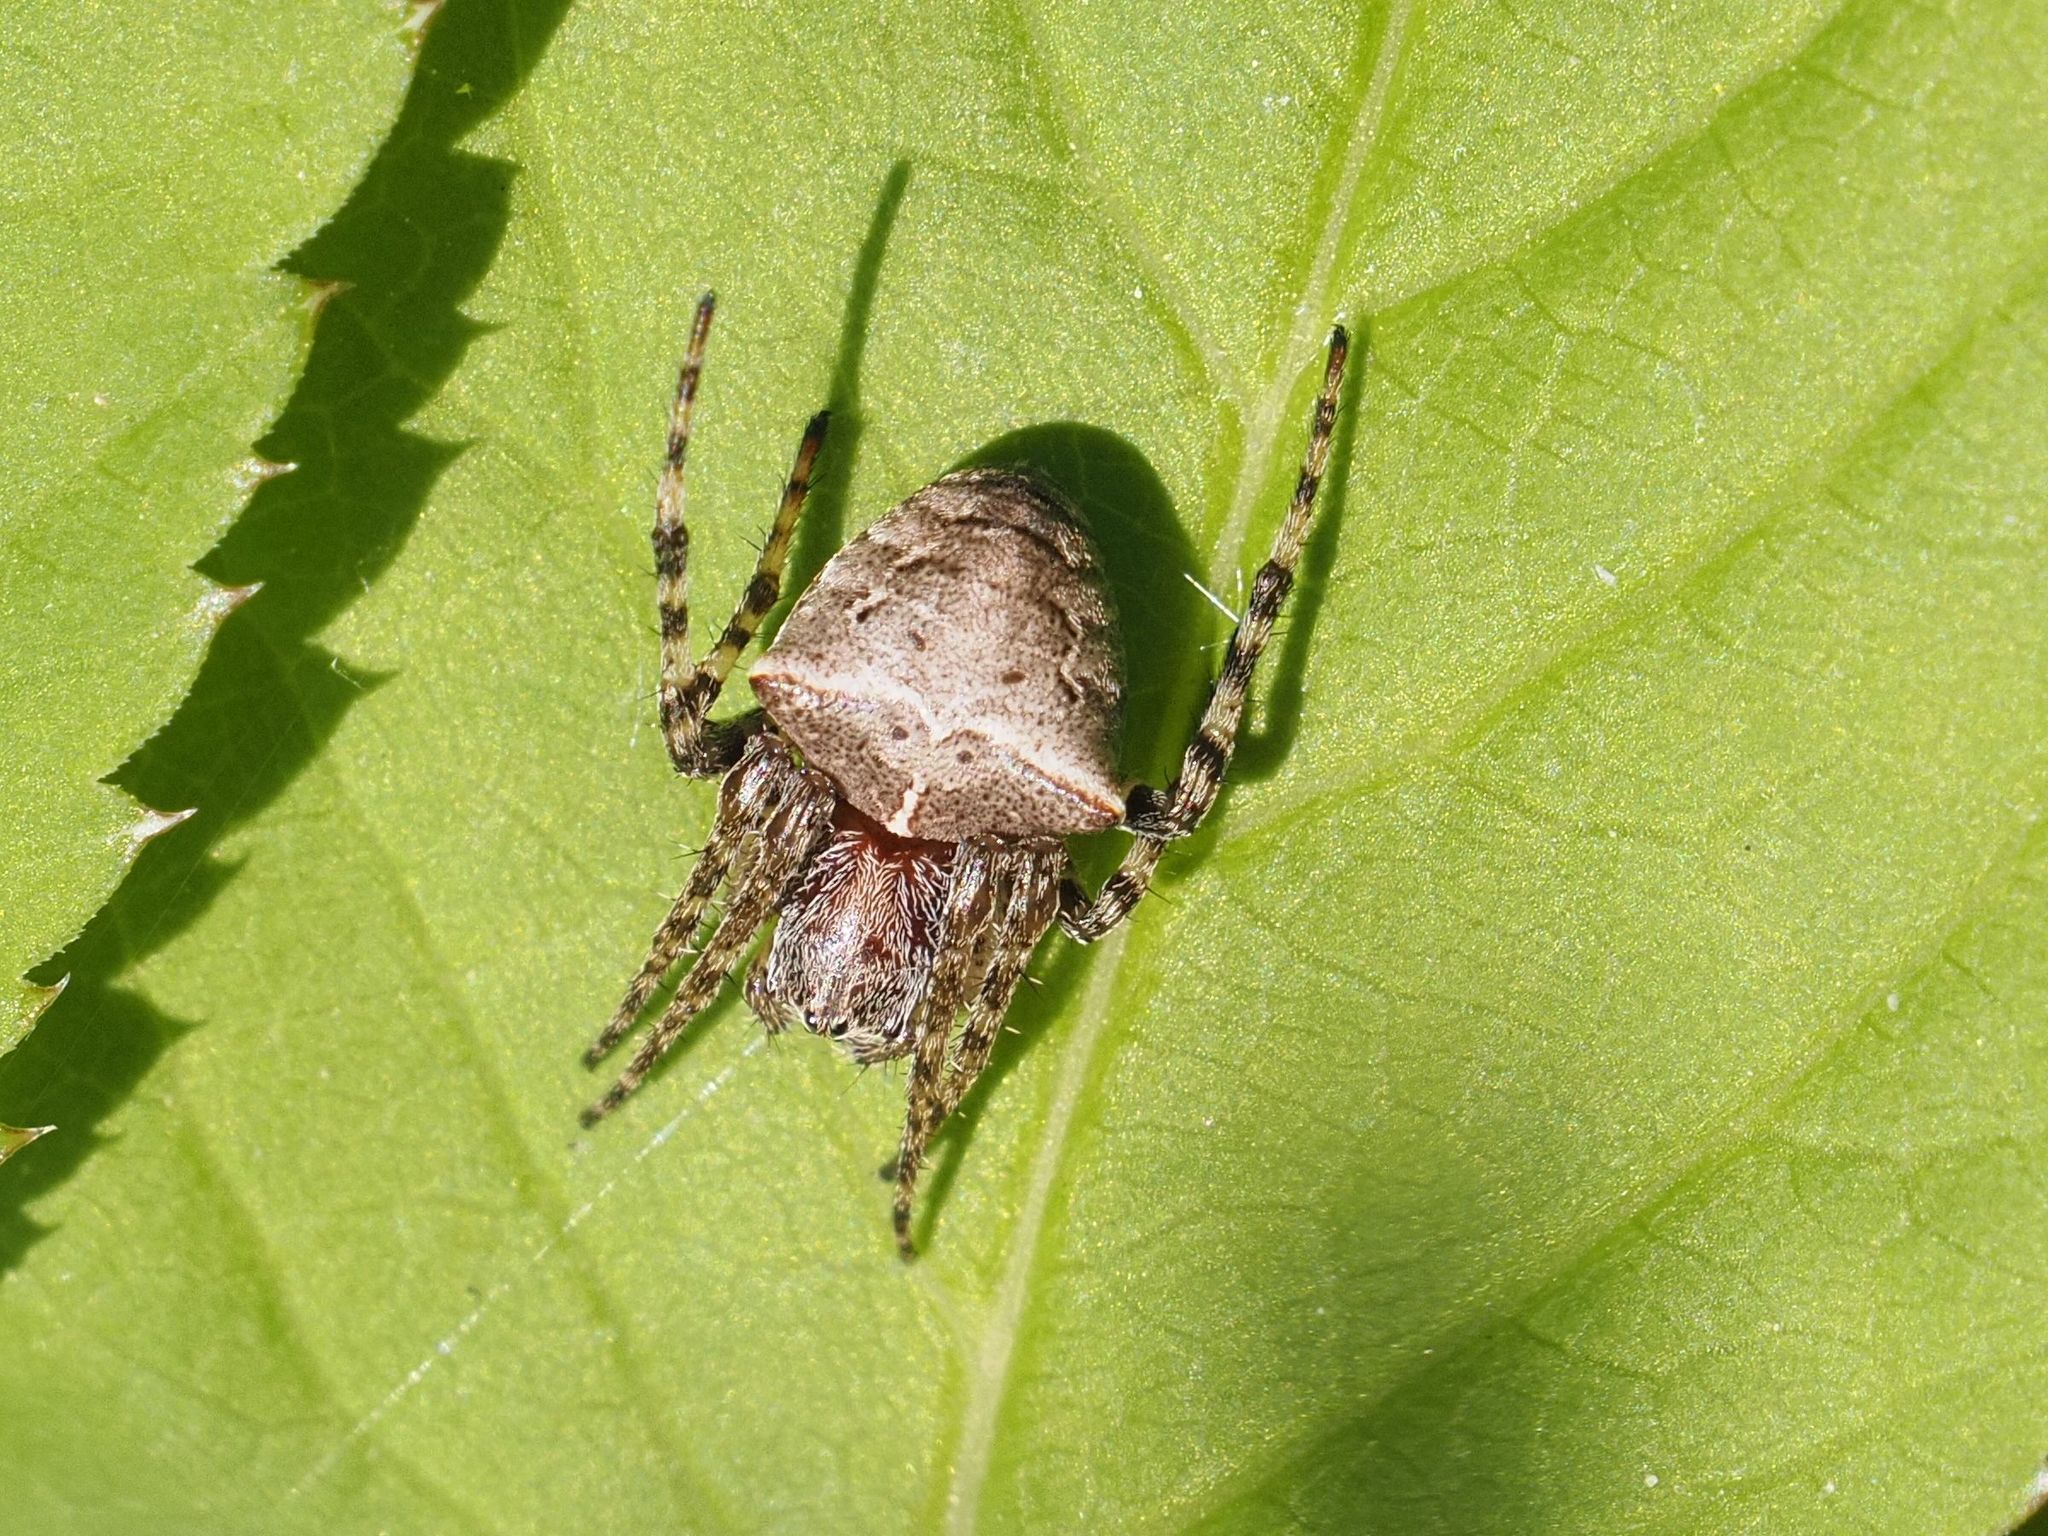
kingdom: Animalia
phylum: Arthropoda
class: Arachnida
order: Araneae
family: Araneidae
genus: Gibbaranea
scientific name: Gibbaranea bituberculata
